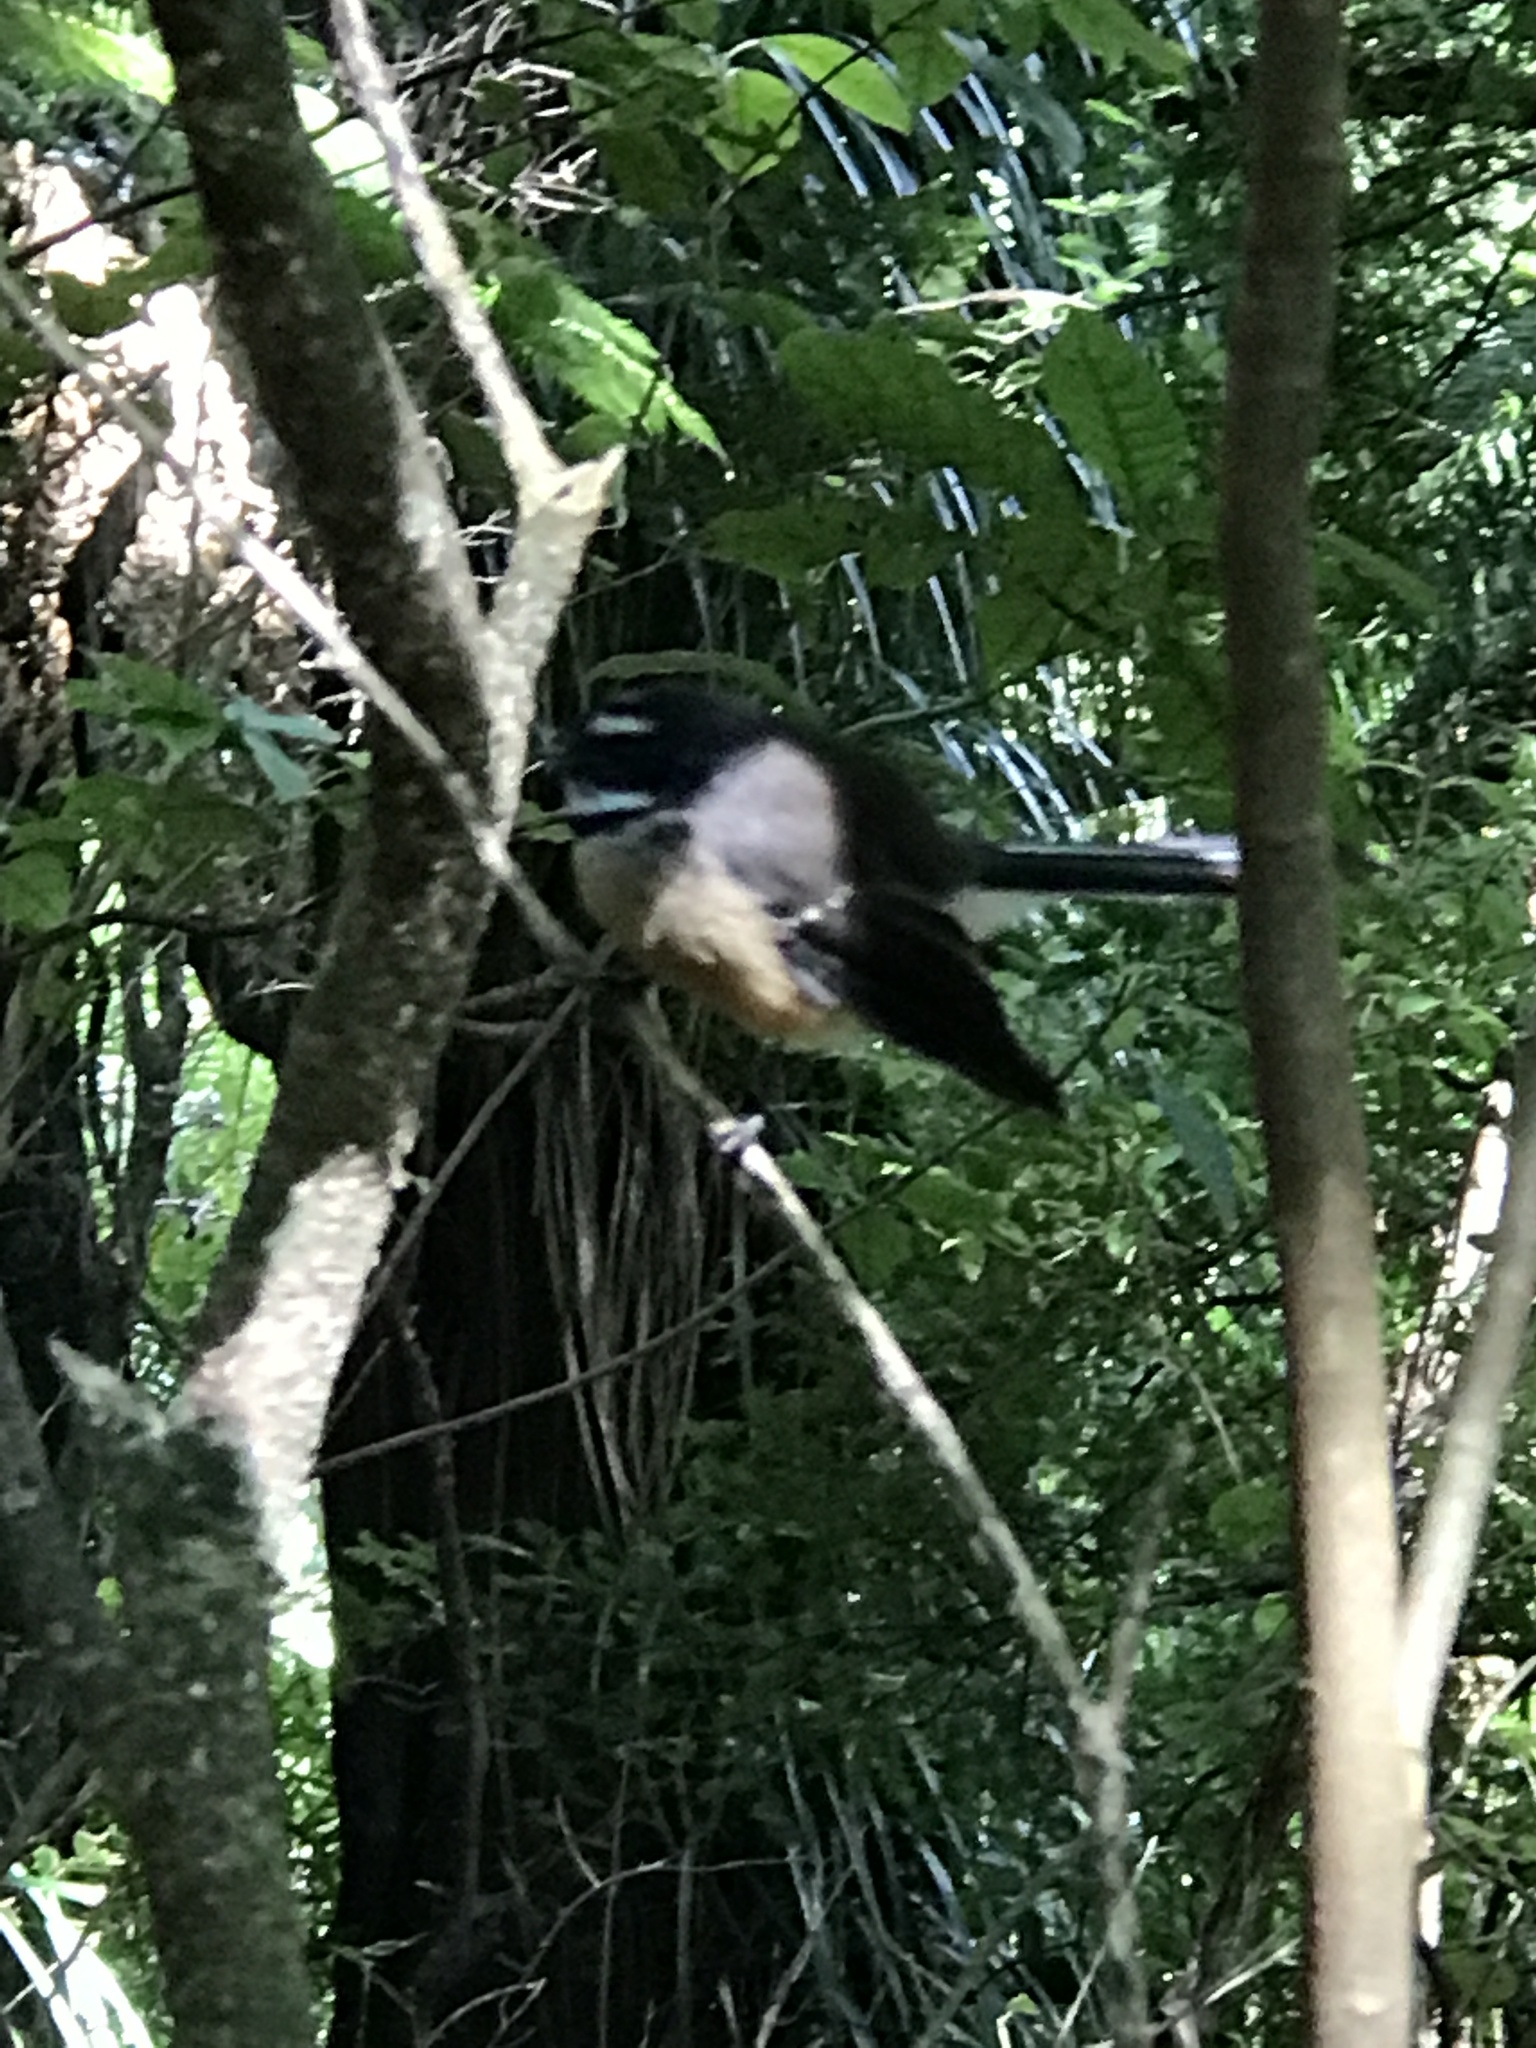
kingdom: Animalia
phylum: Chordata
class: Aves
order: Passeriformes
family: Rhipiduridae
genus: Rhipidura
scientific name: Rhipidura fuliginosa
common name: New zealand fantail
